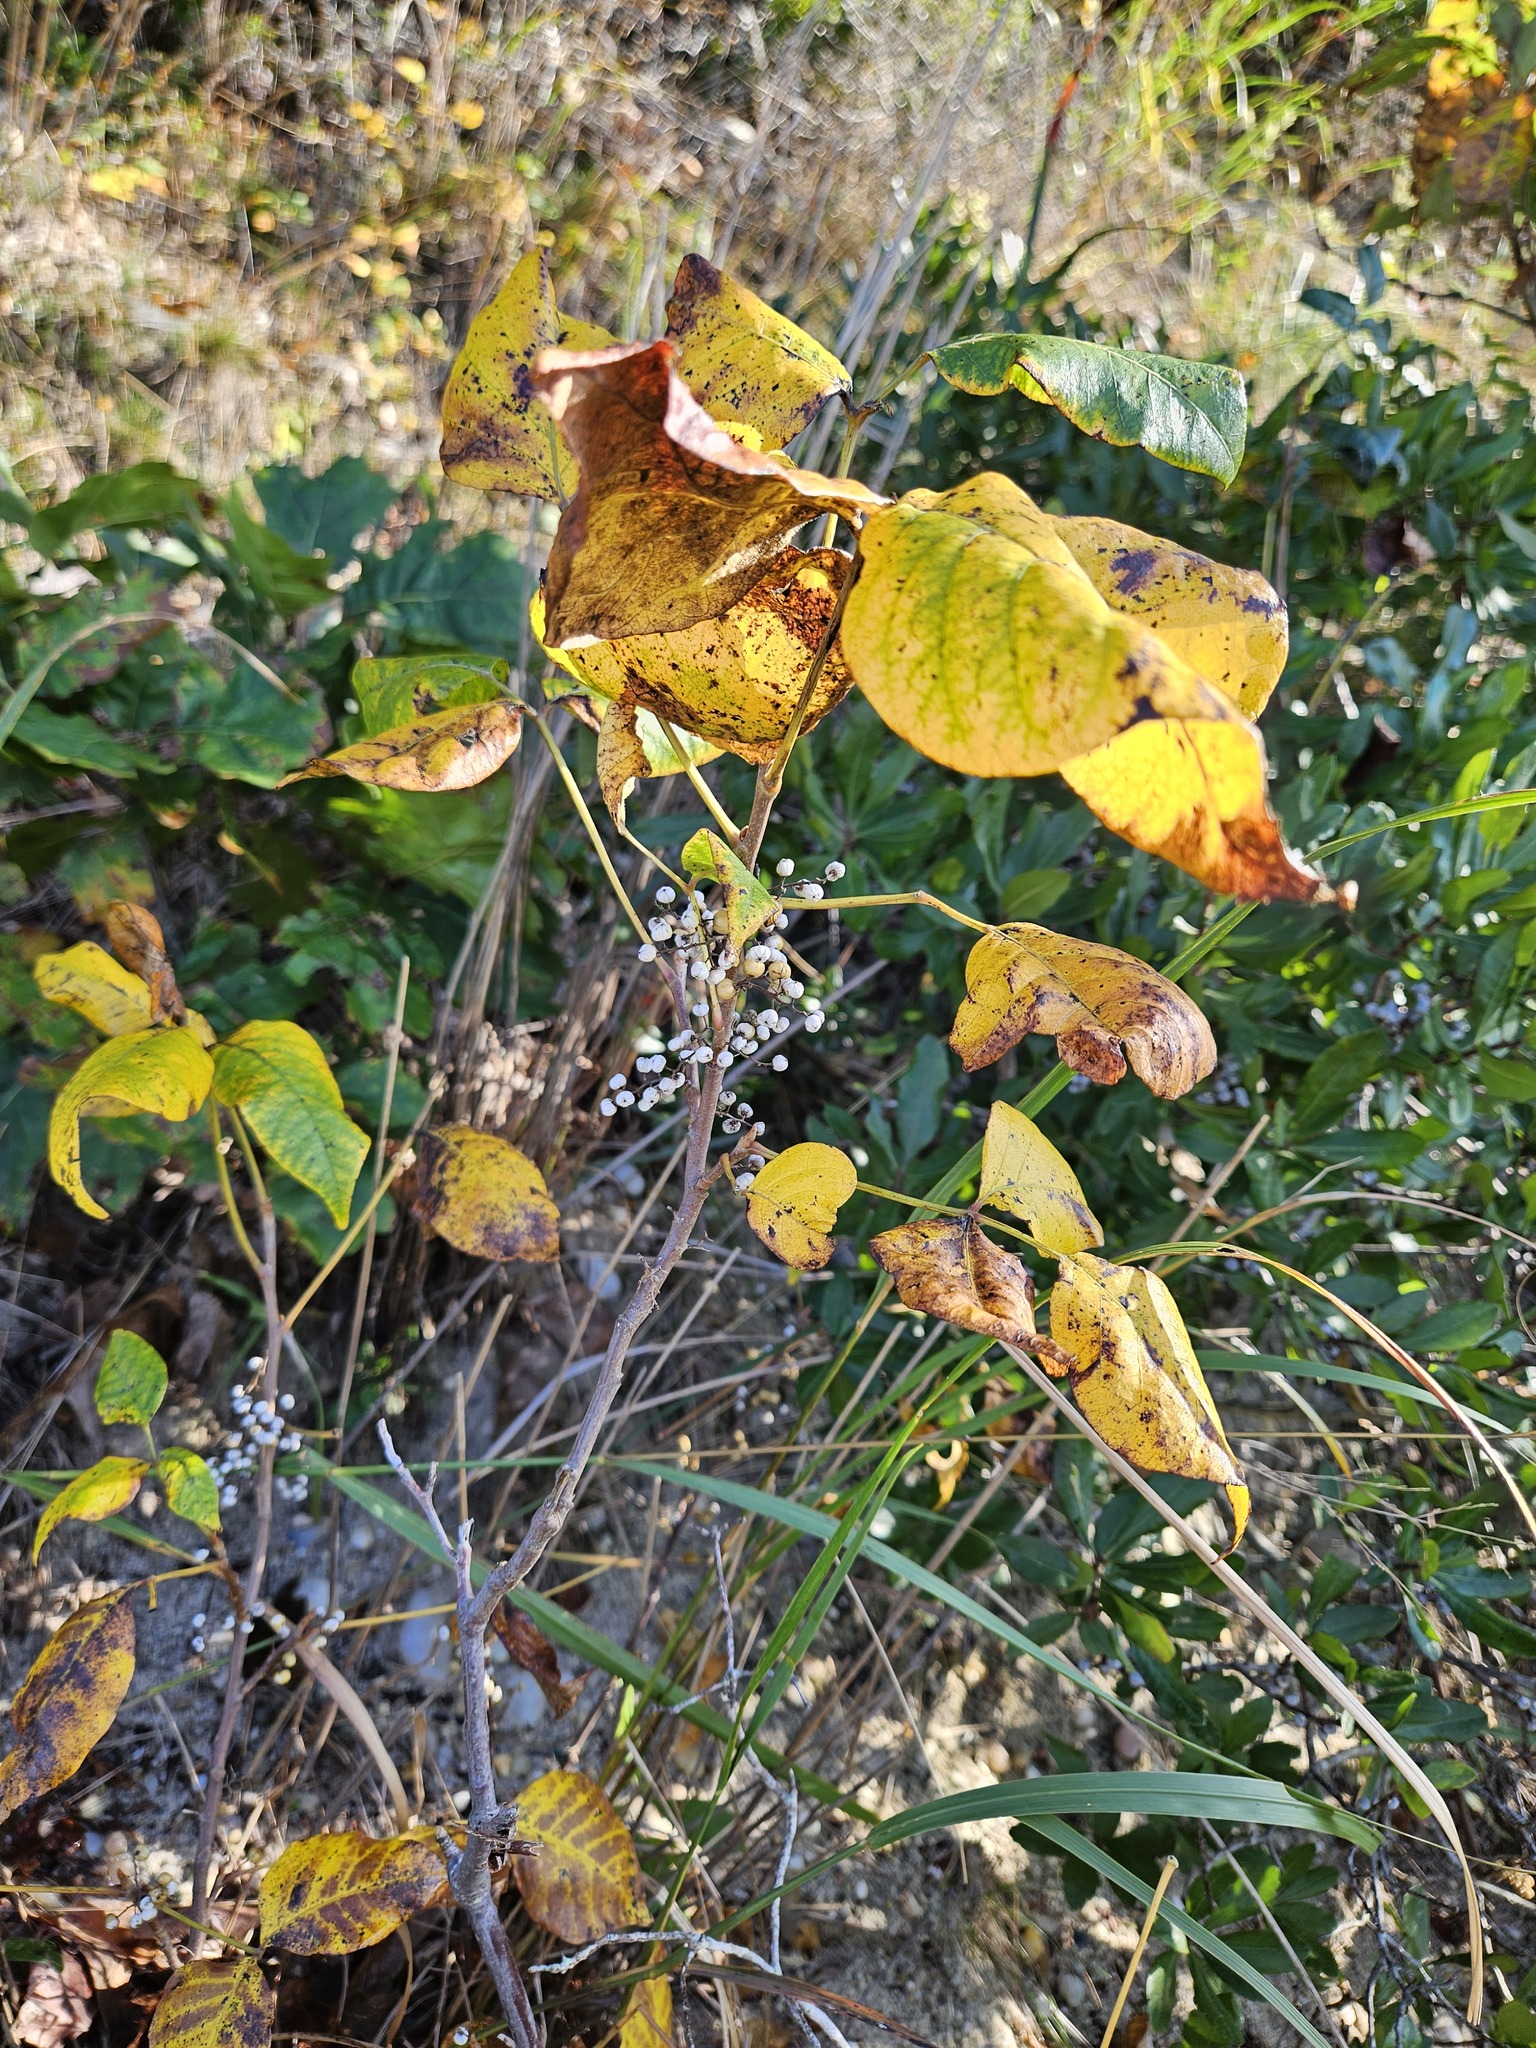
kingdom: Plantae
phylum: Tracheophyta
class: Magnoliopsida
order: Sapindales
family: Anacardiaceae
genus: Toxicodendron
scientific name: Toxicodendron radicans
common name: Poison ivy
